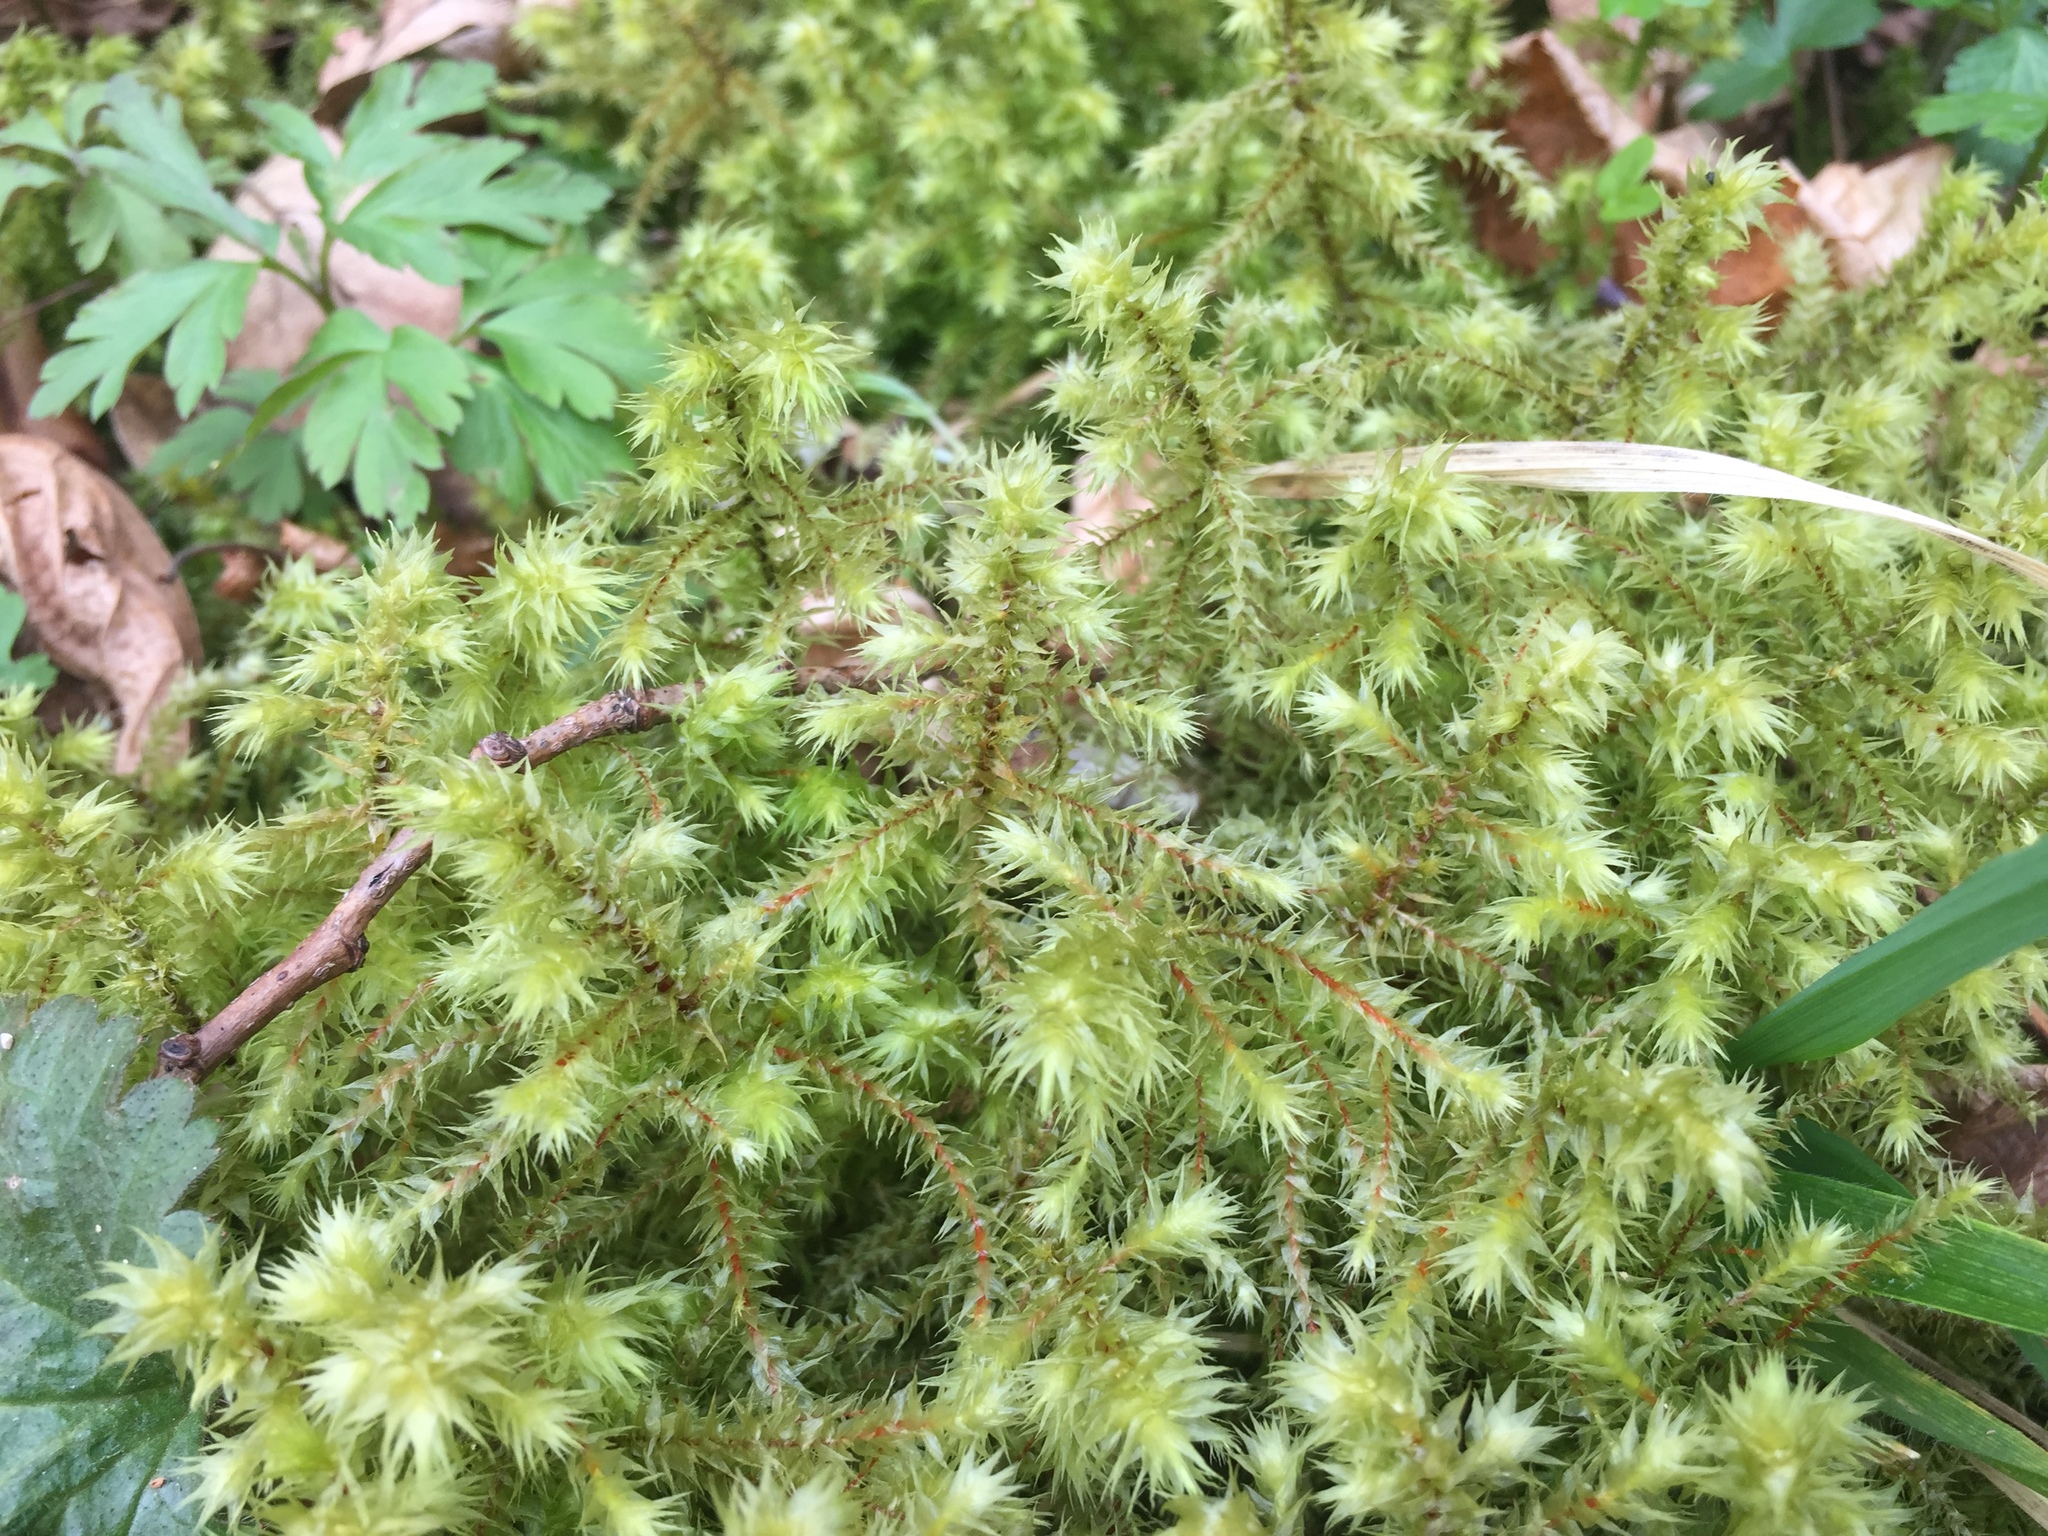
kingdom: Plantae
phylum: Bryophyta
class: Bryopsida
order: Hypnales
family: Hylocomiaceae
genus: Hylocomiadelphus
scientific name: Hylocomiadelphus triquetrus
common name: Rough goose neck moss
